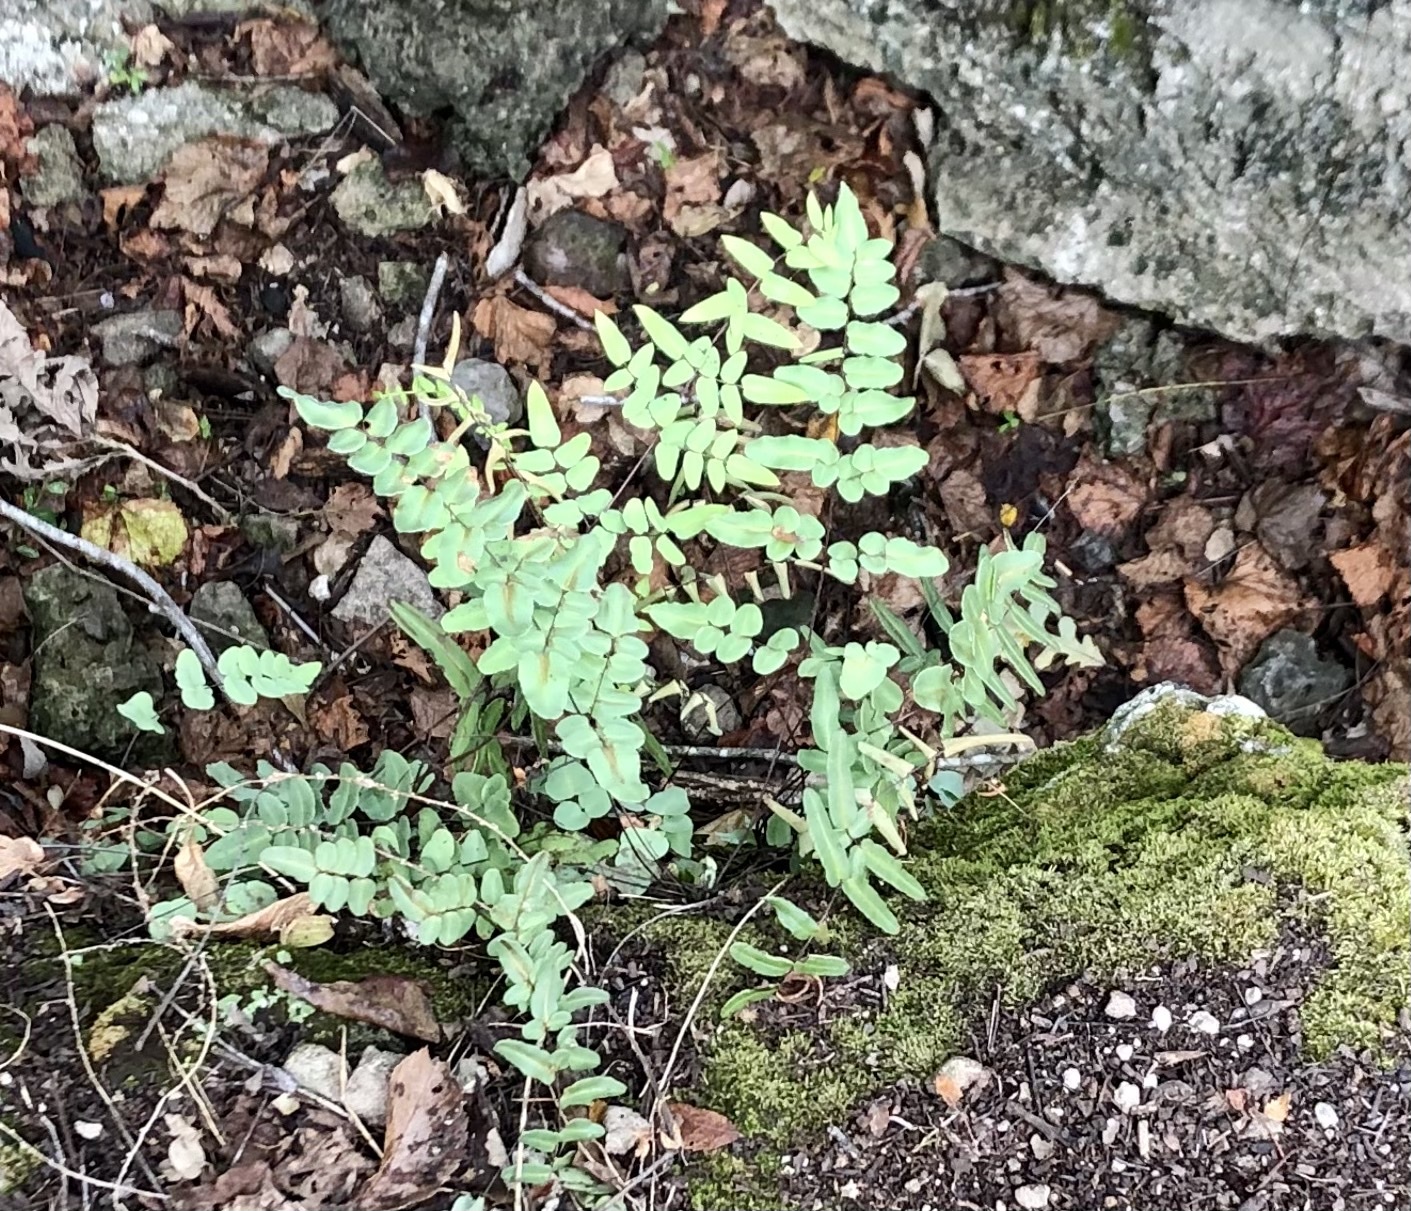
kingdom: Plantae
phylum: Tracheophyta
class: Polypodiopsida
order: Polypodiales
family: Pteridaceae
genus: Pellaea
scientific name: Pellaea atropurpurea
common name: Hairy cliffbrake
